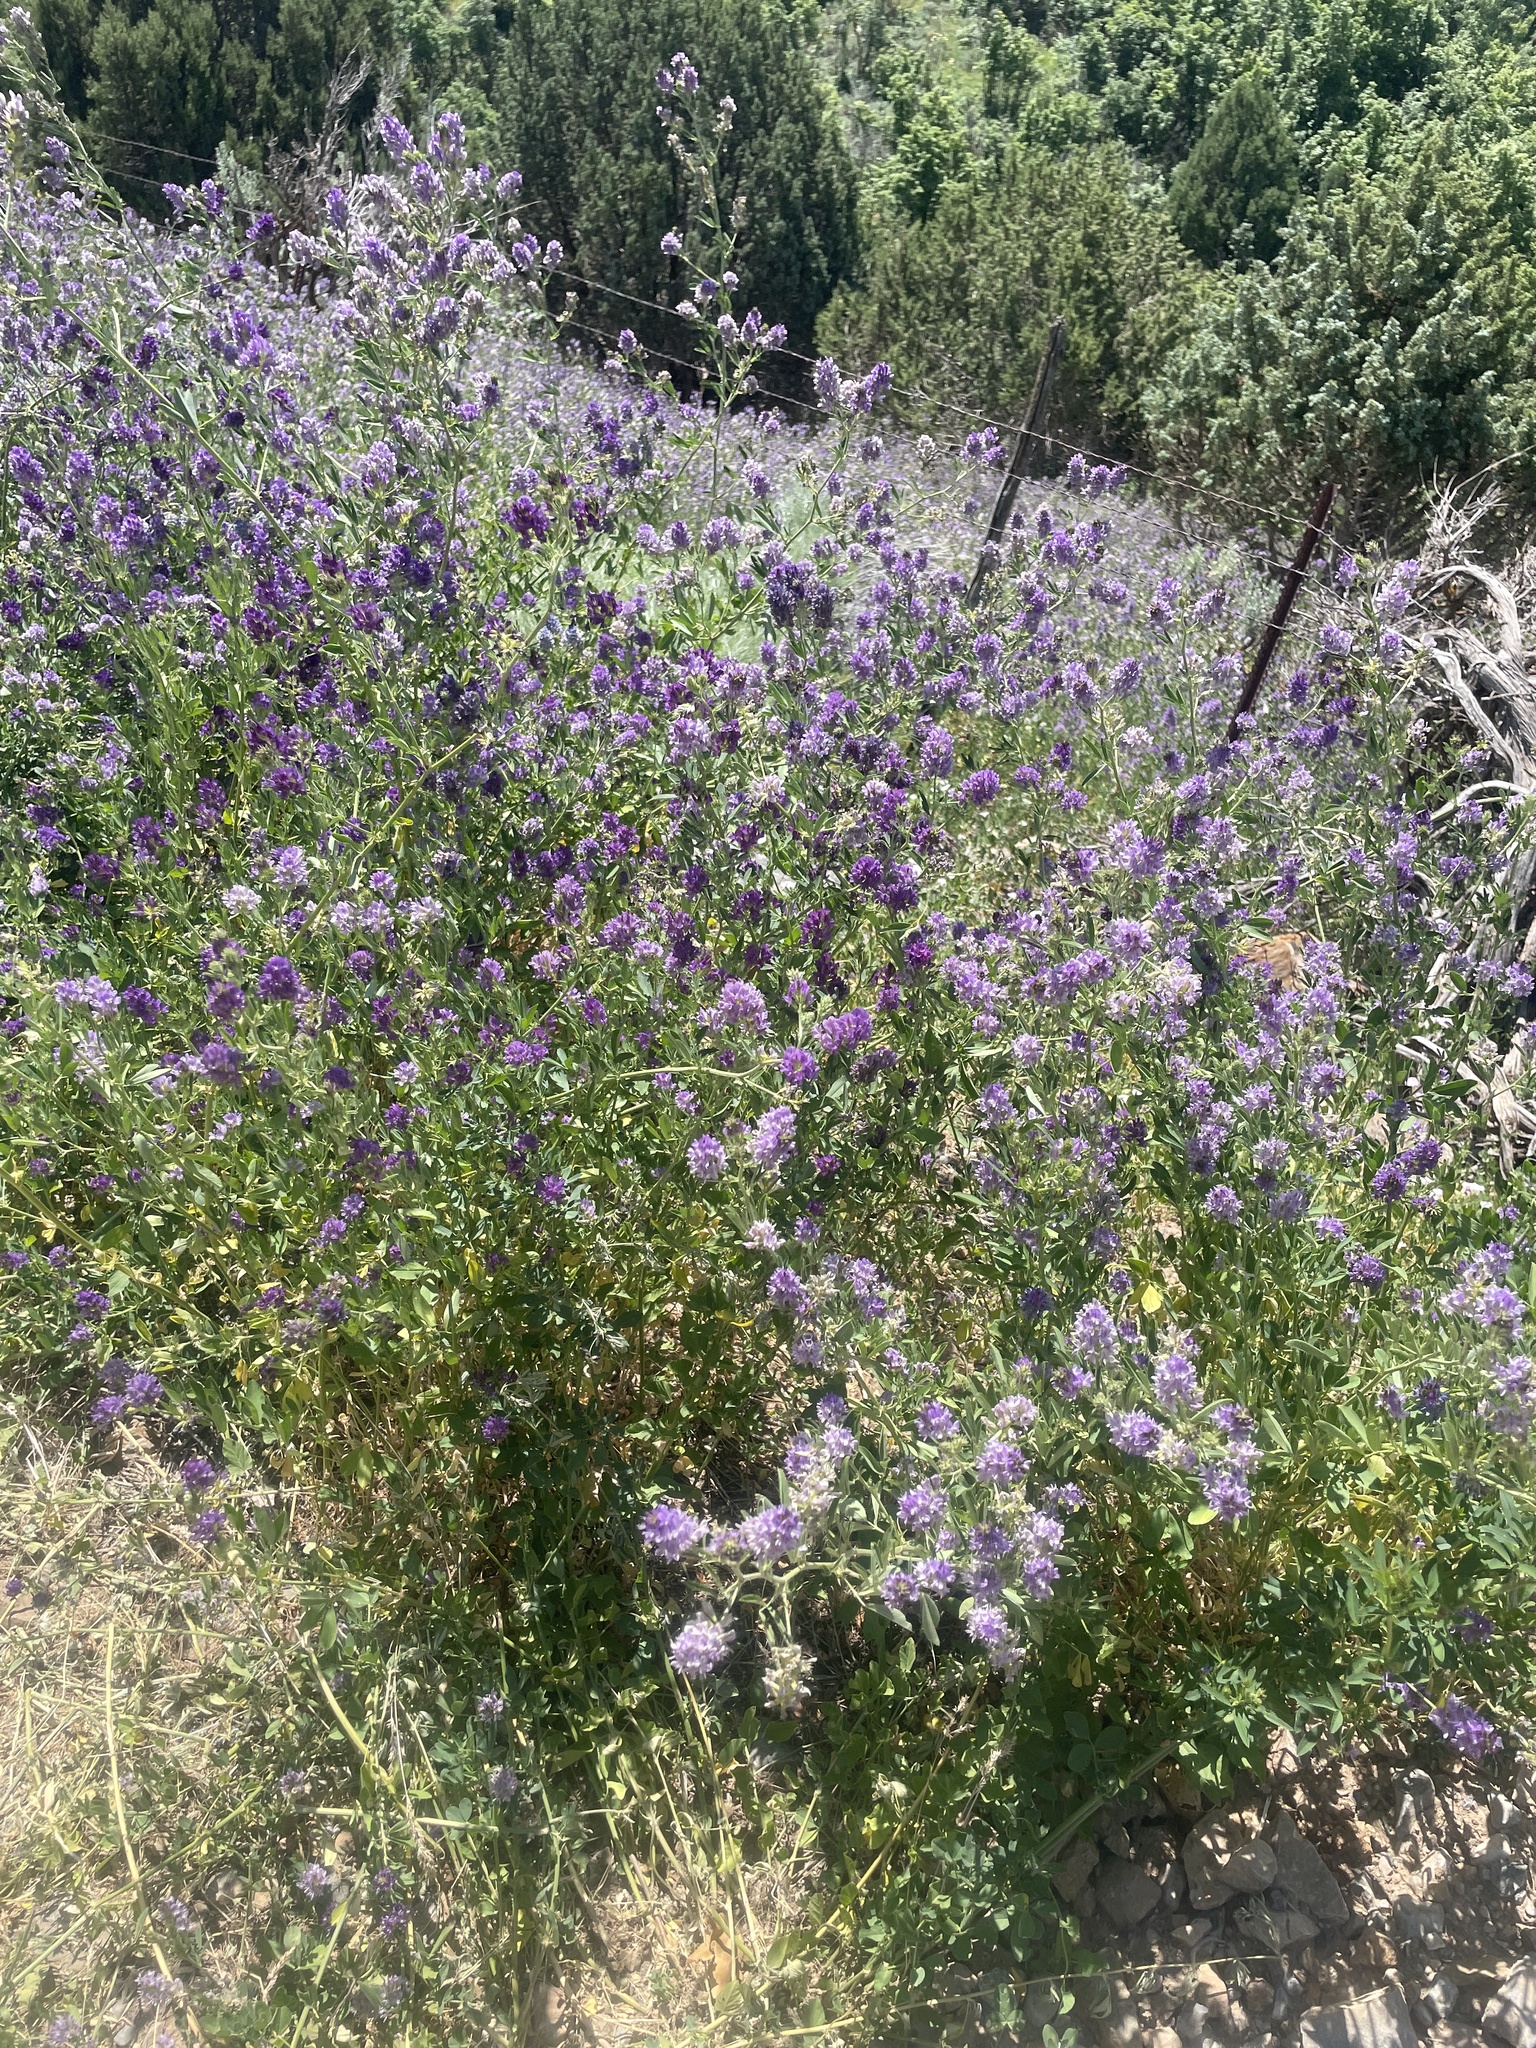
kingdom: Plantae
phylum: Tracheophyta
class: Magnoliopsida
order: Fabales
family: Fabaceae
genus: Medicago
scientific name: Medicago sativa
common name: Alfalfa
